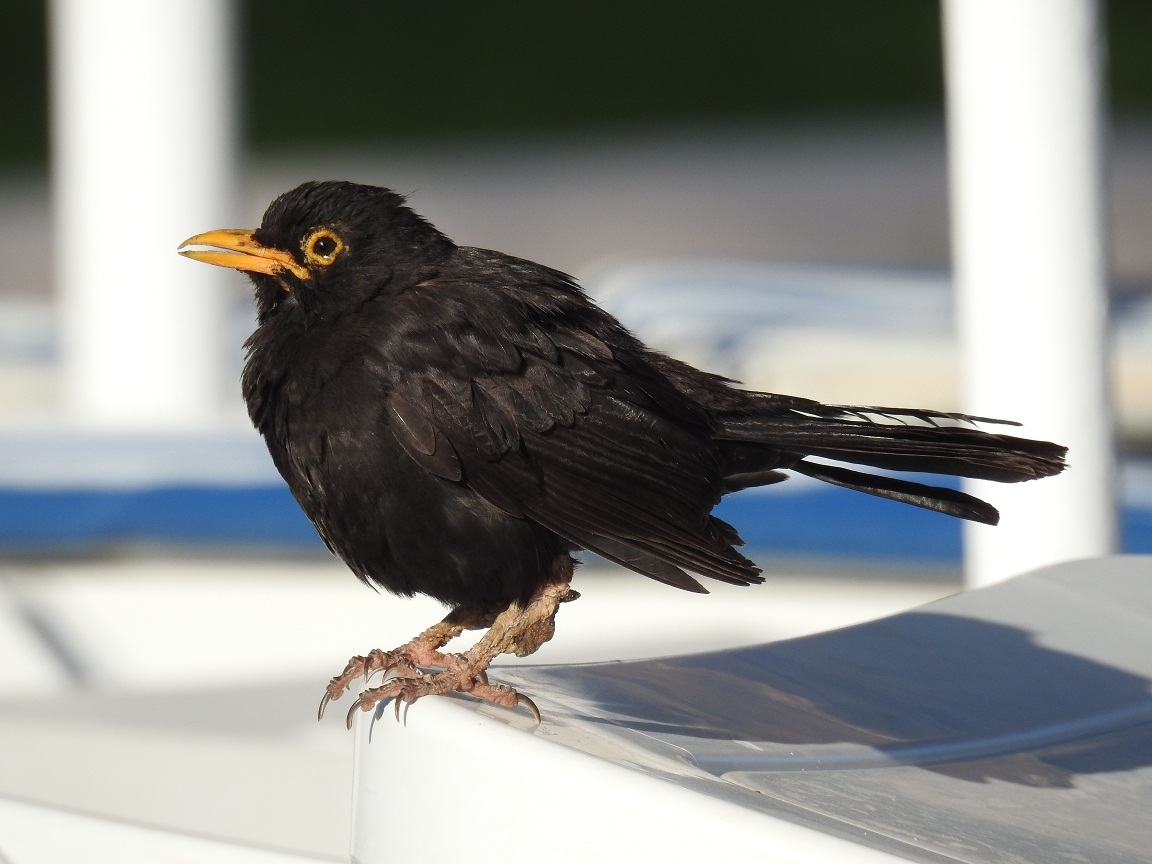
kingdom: Animalia
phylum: Chordata
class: Aves
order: Passeriformes
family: Turdidae
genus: Turdus
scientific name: Turdus merula
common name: Common blackbird
